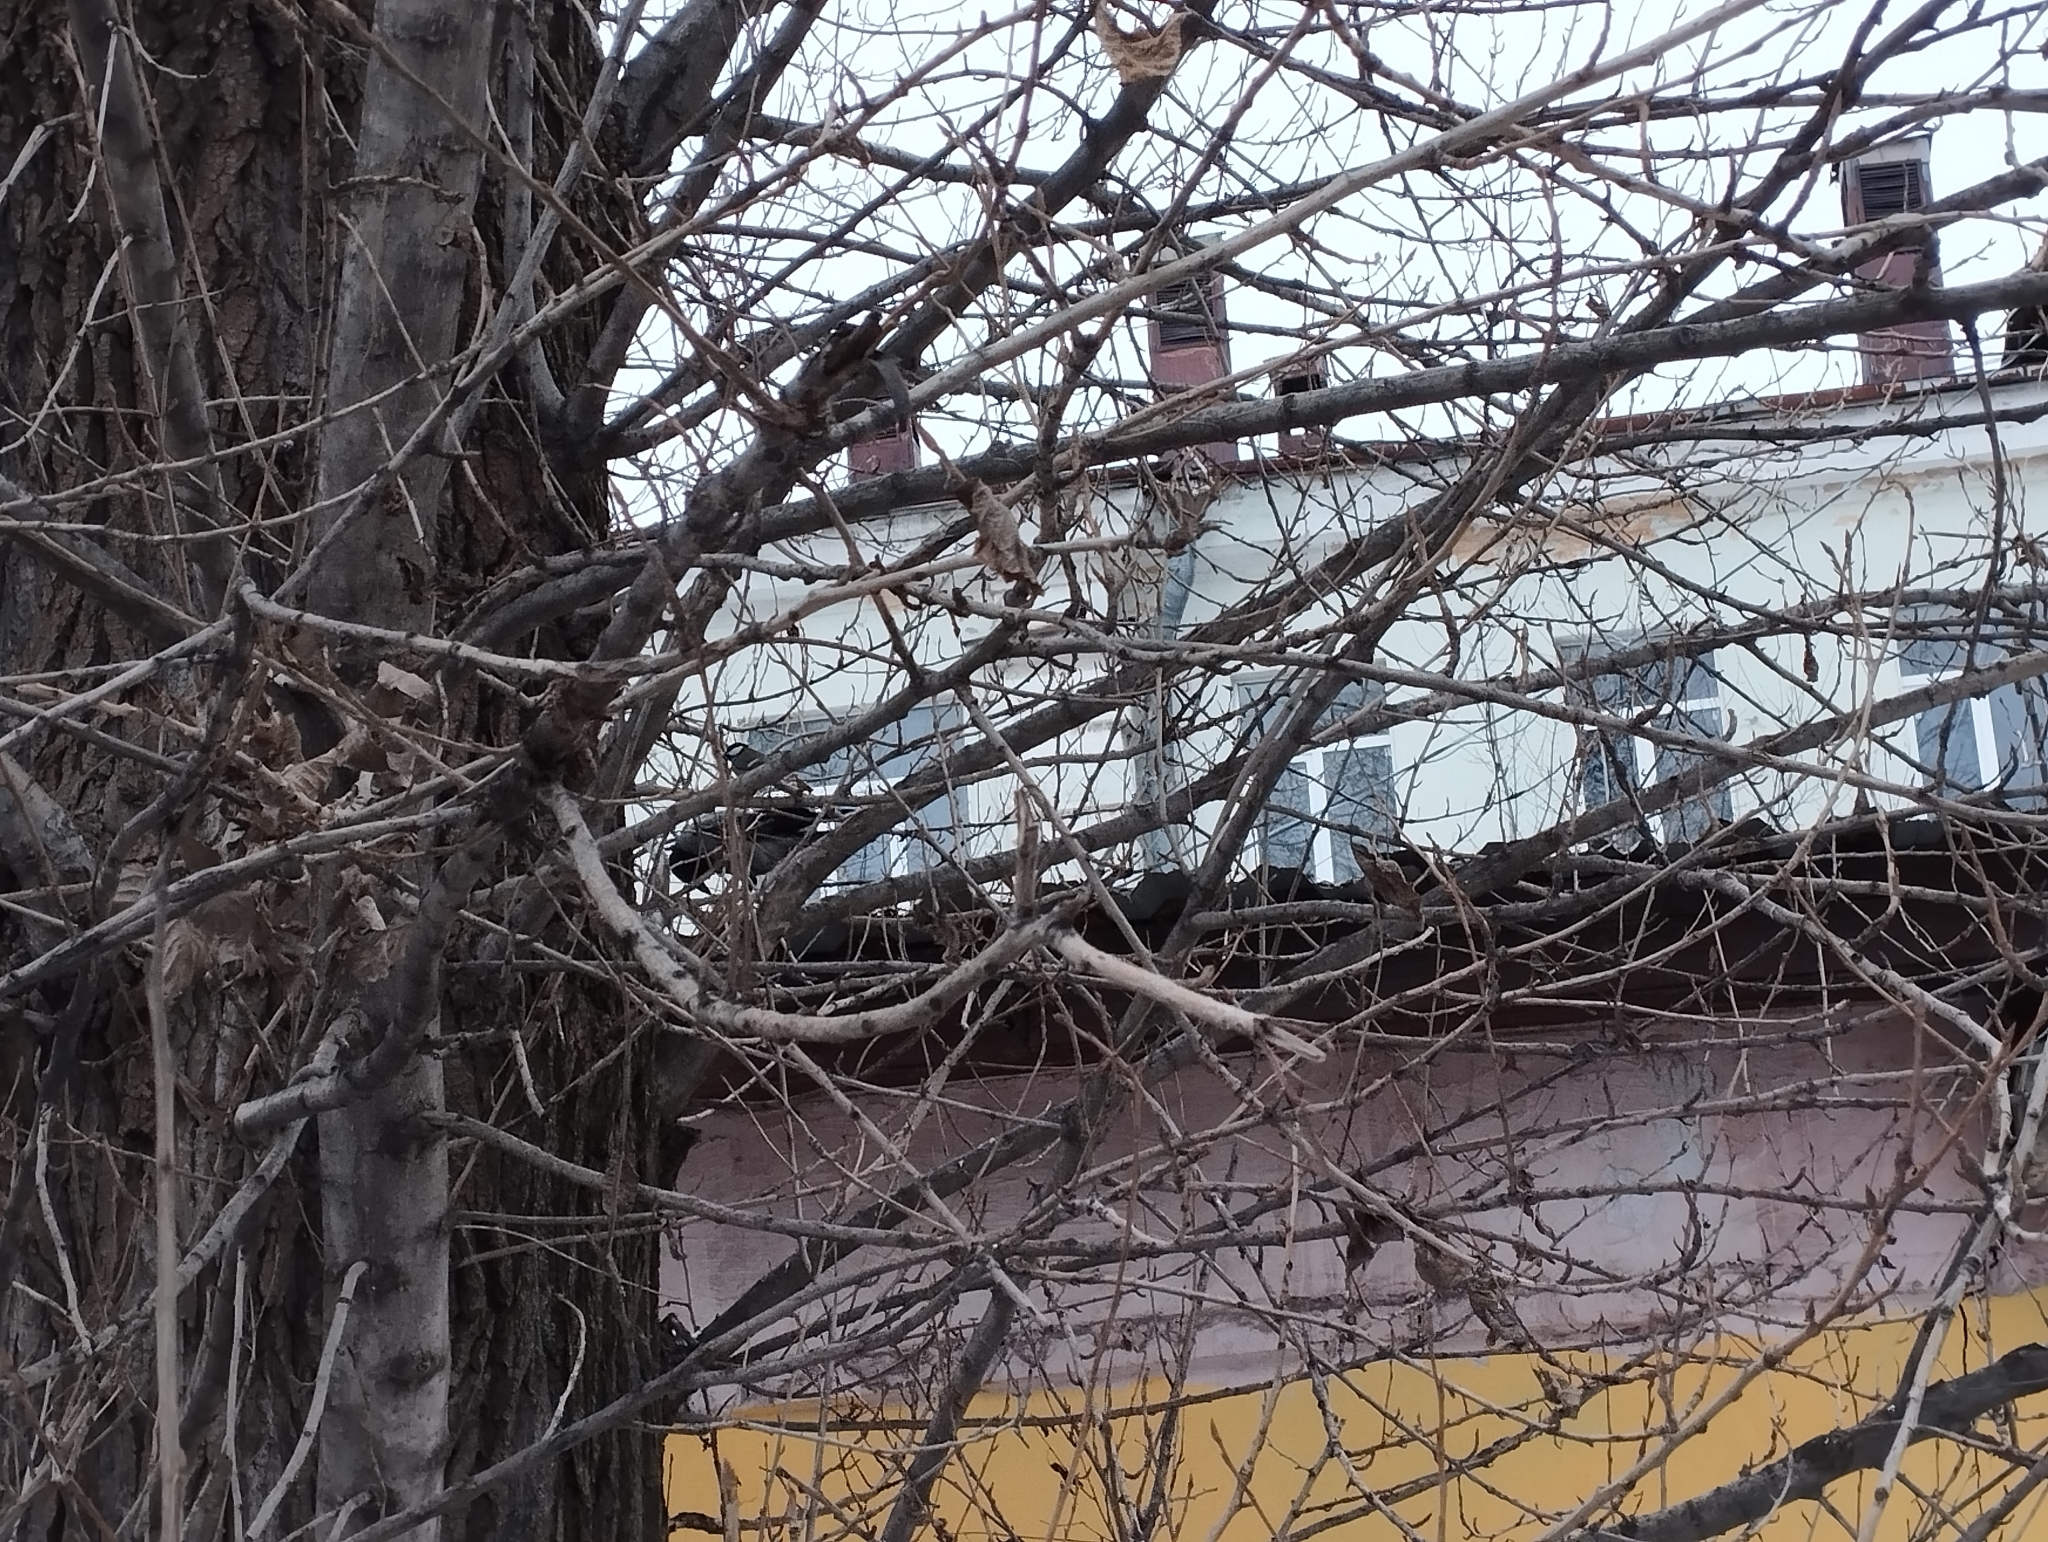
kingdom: Animalia
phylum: Chordata
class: Aves
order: Passeriformes
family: Paridae
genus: Parus
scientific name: Parus major
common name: Great tit
